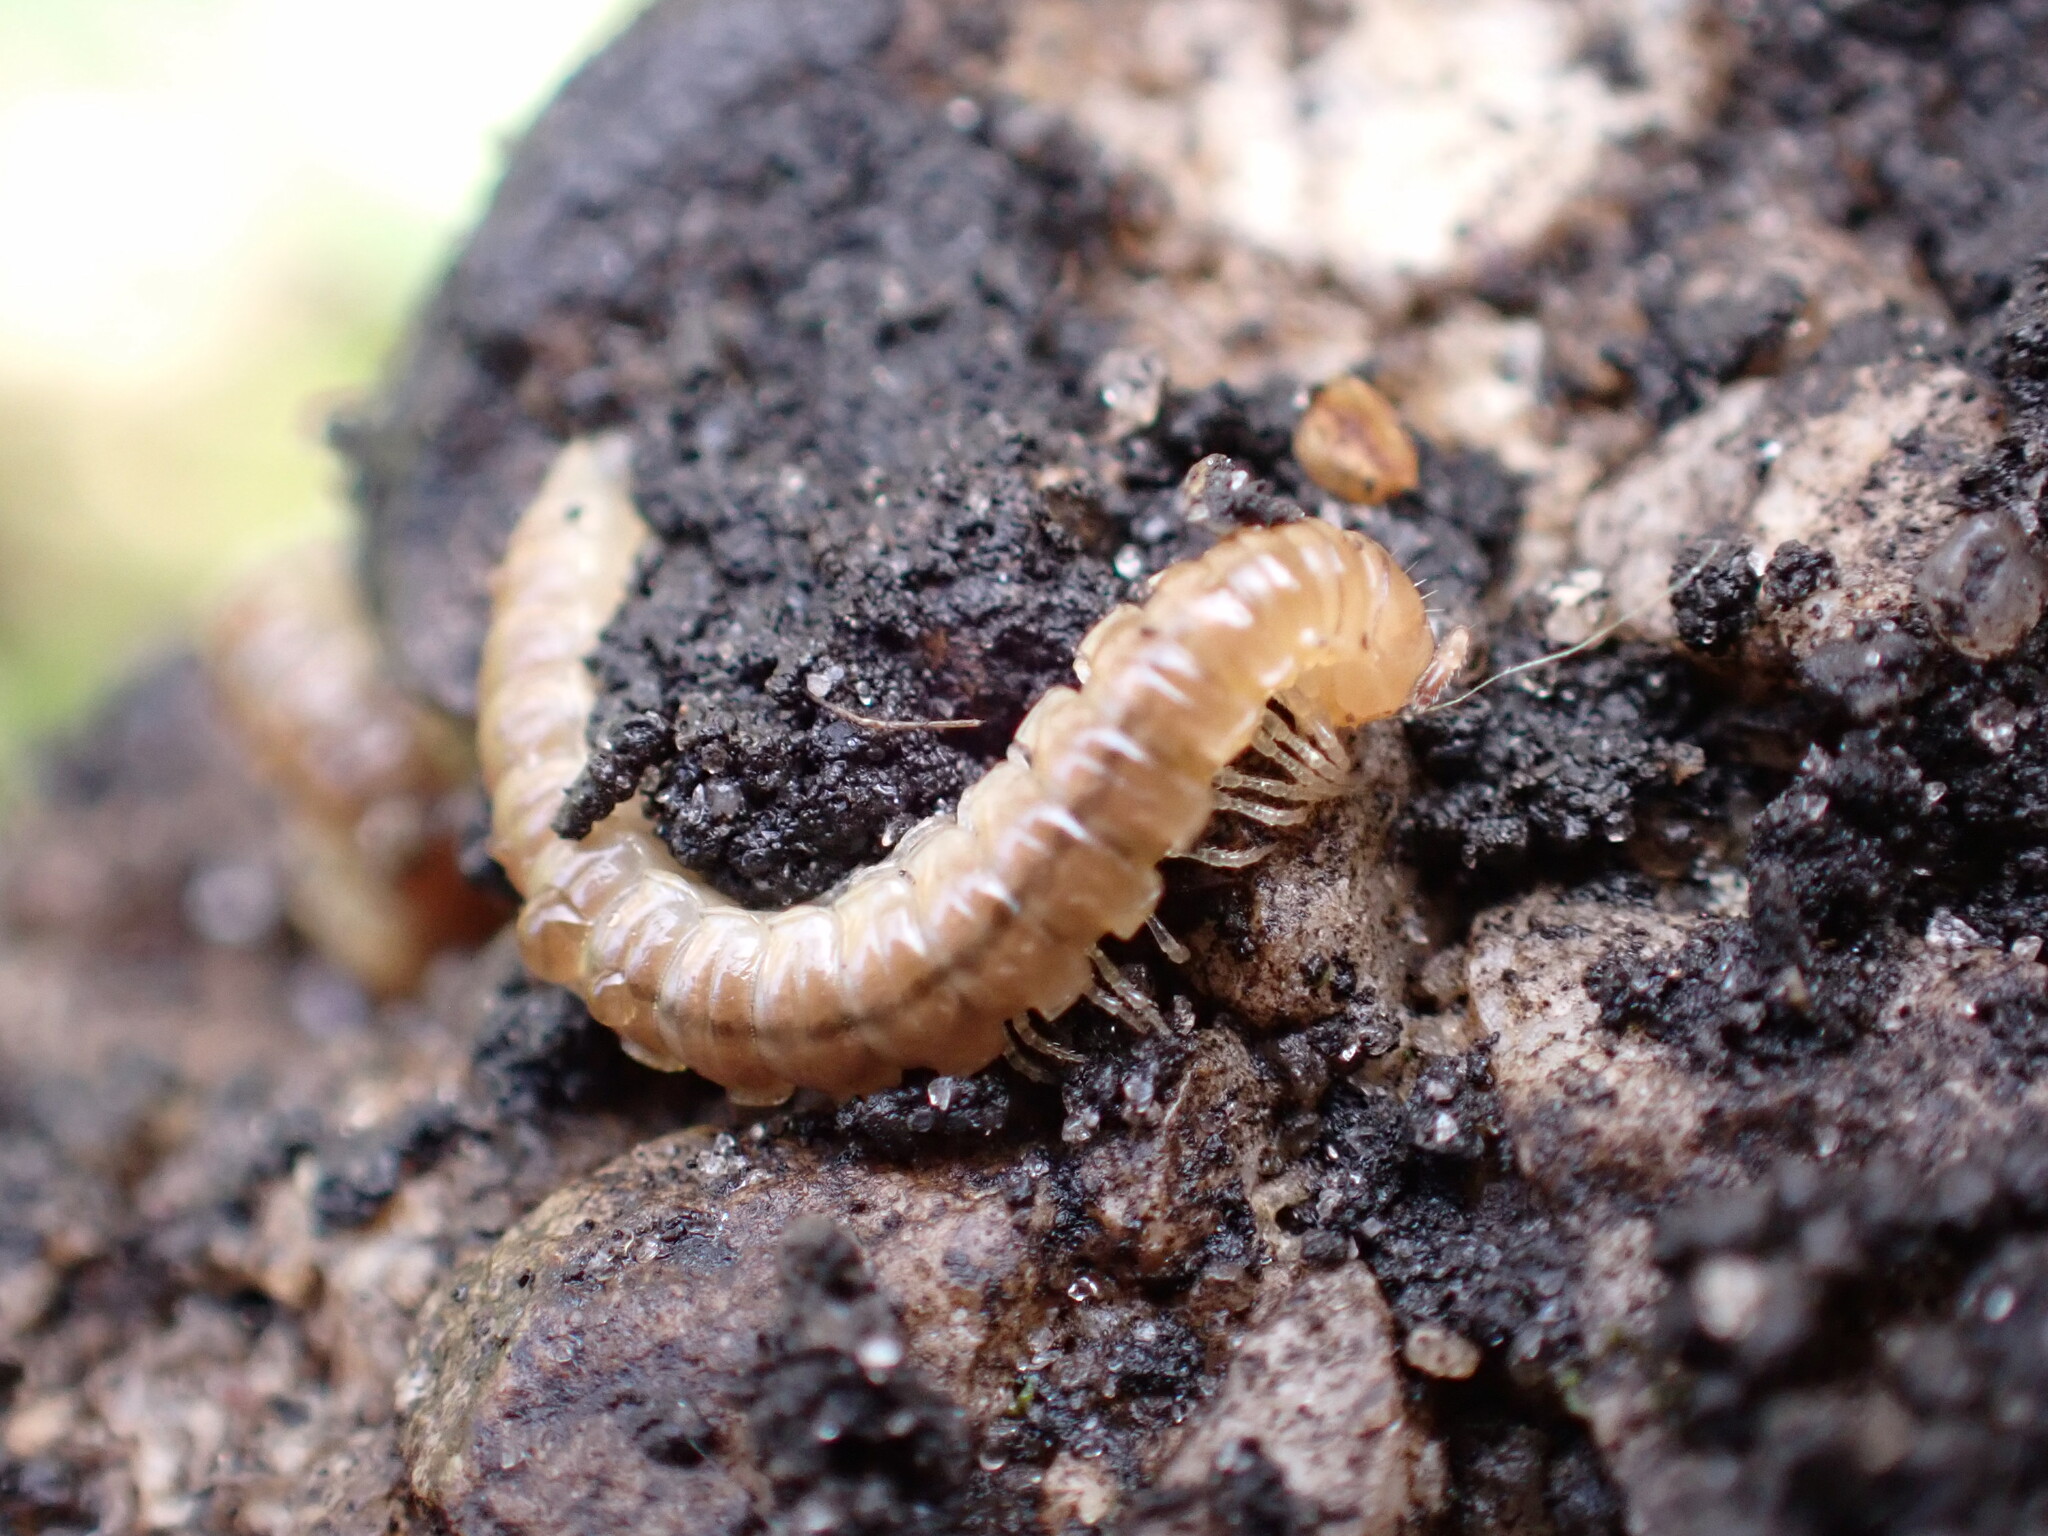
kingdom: Animalia
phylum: Arthropoda
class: Diplopoda
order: Polydesmida
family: Paradoxosomatidae
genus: Oxidus
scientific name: Oxidus gracilis
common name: Greenhouse millipede
